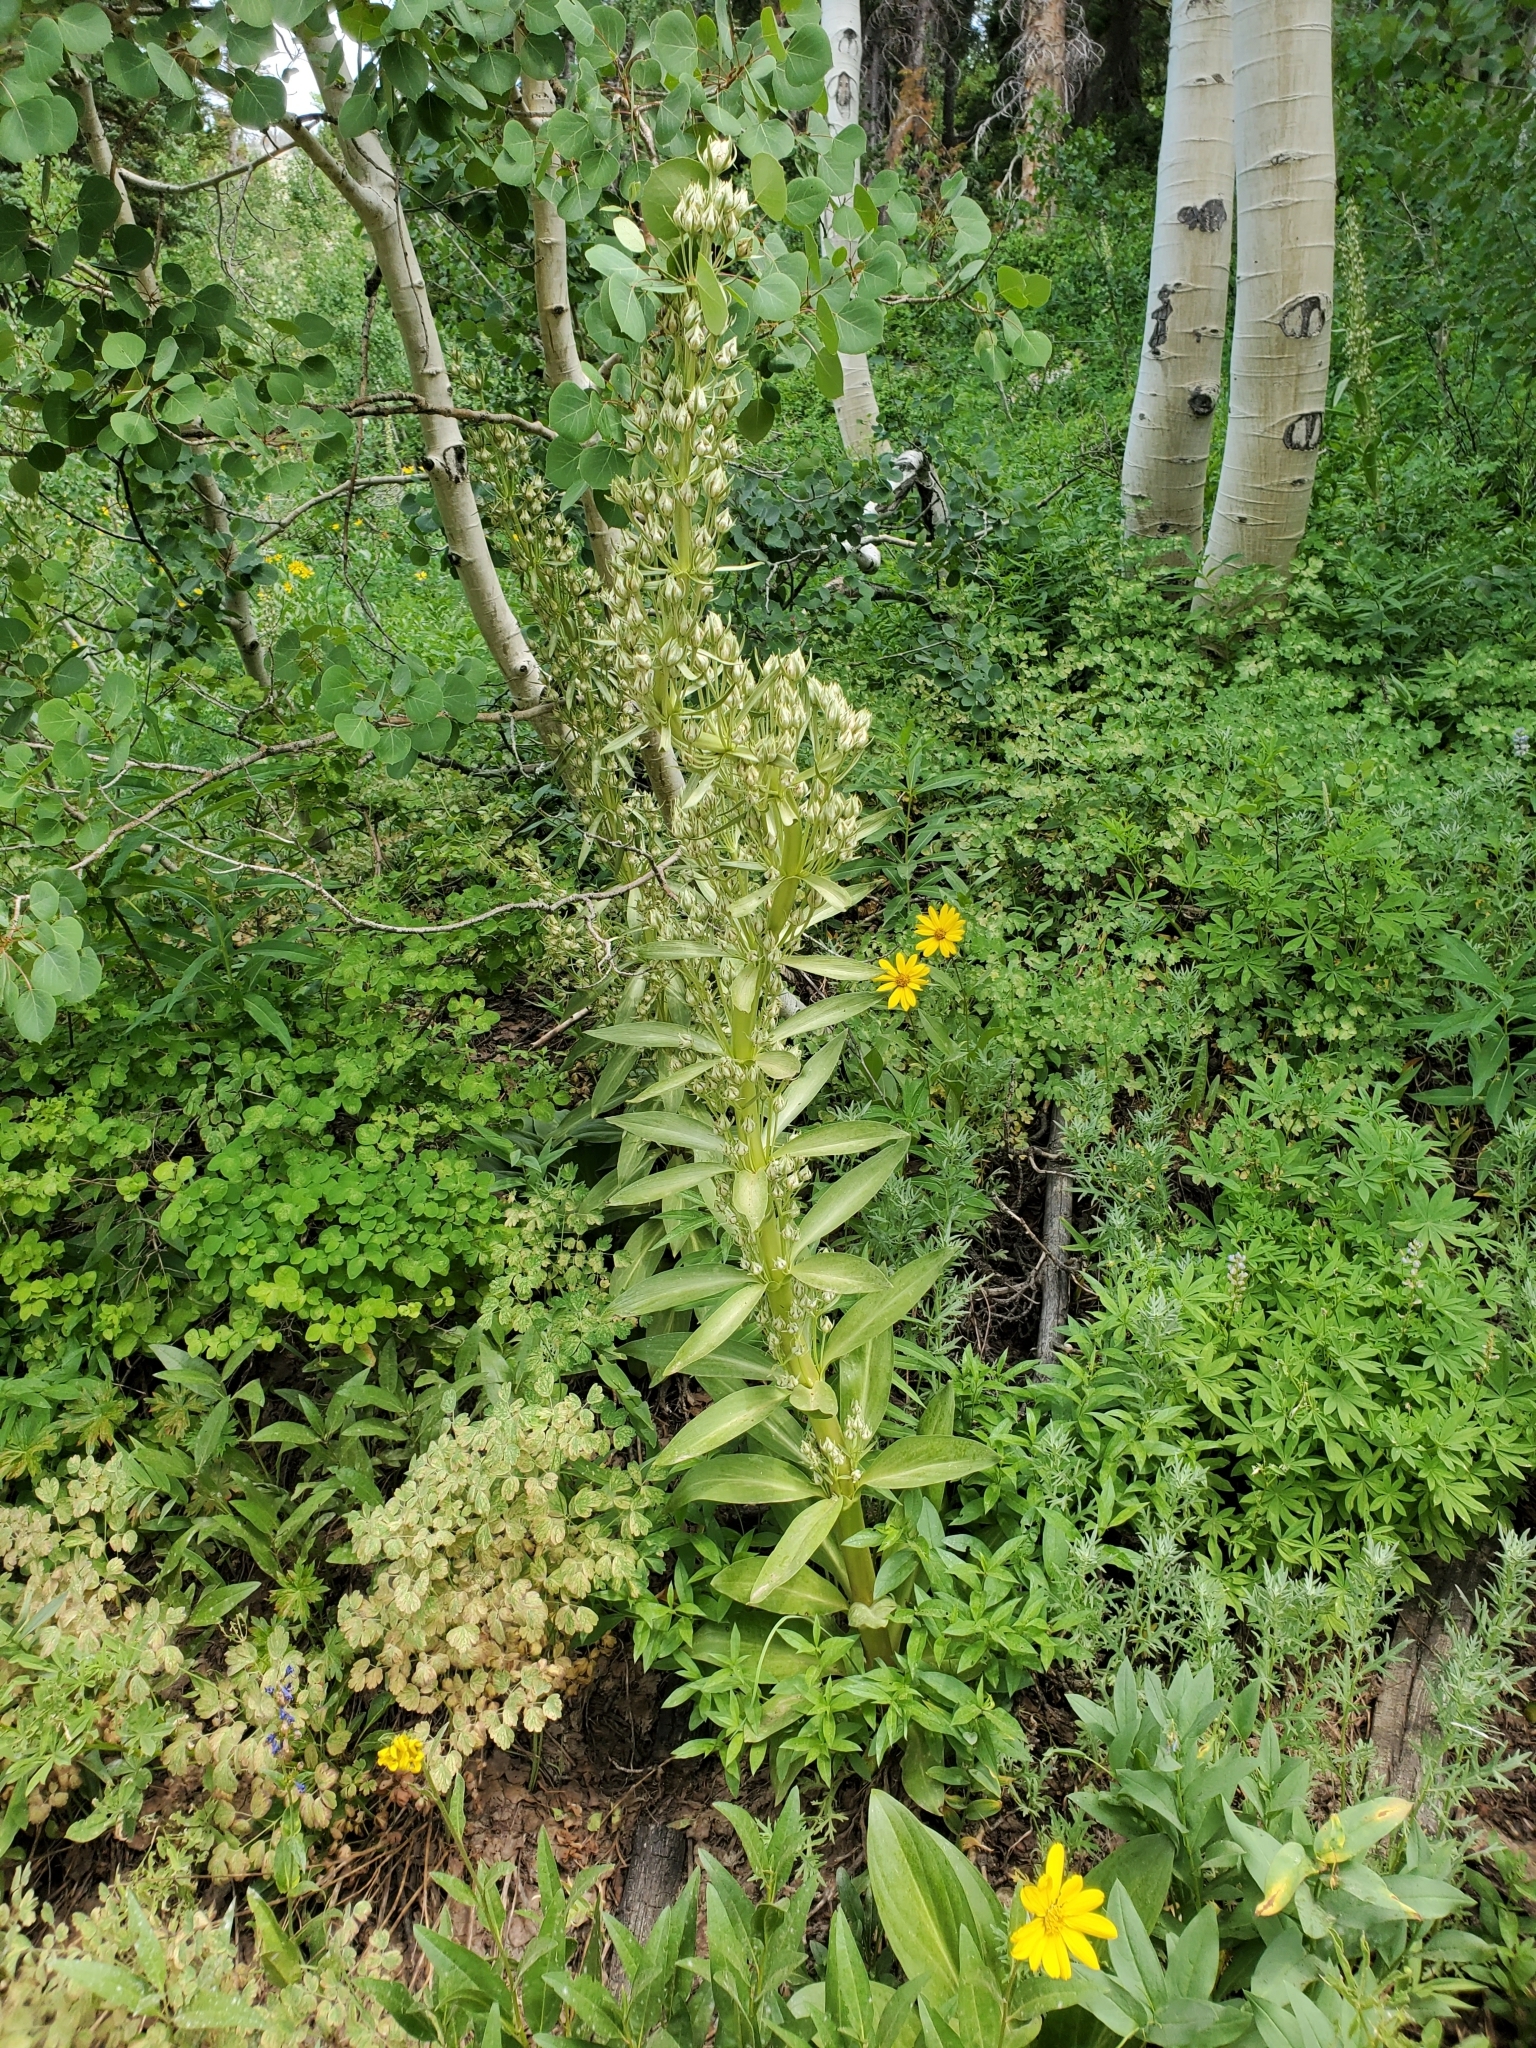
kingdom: Plantae
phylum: Tracheophyta
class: Magnoliopsida
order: Gentianales
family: Gentianaceae
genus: Frasera
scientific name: Frasera speciosa
